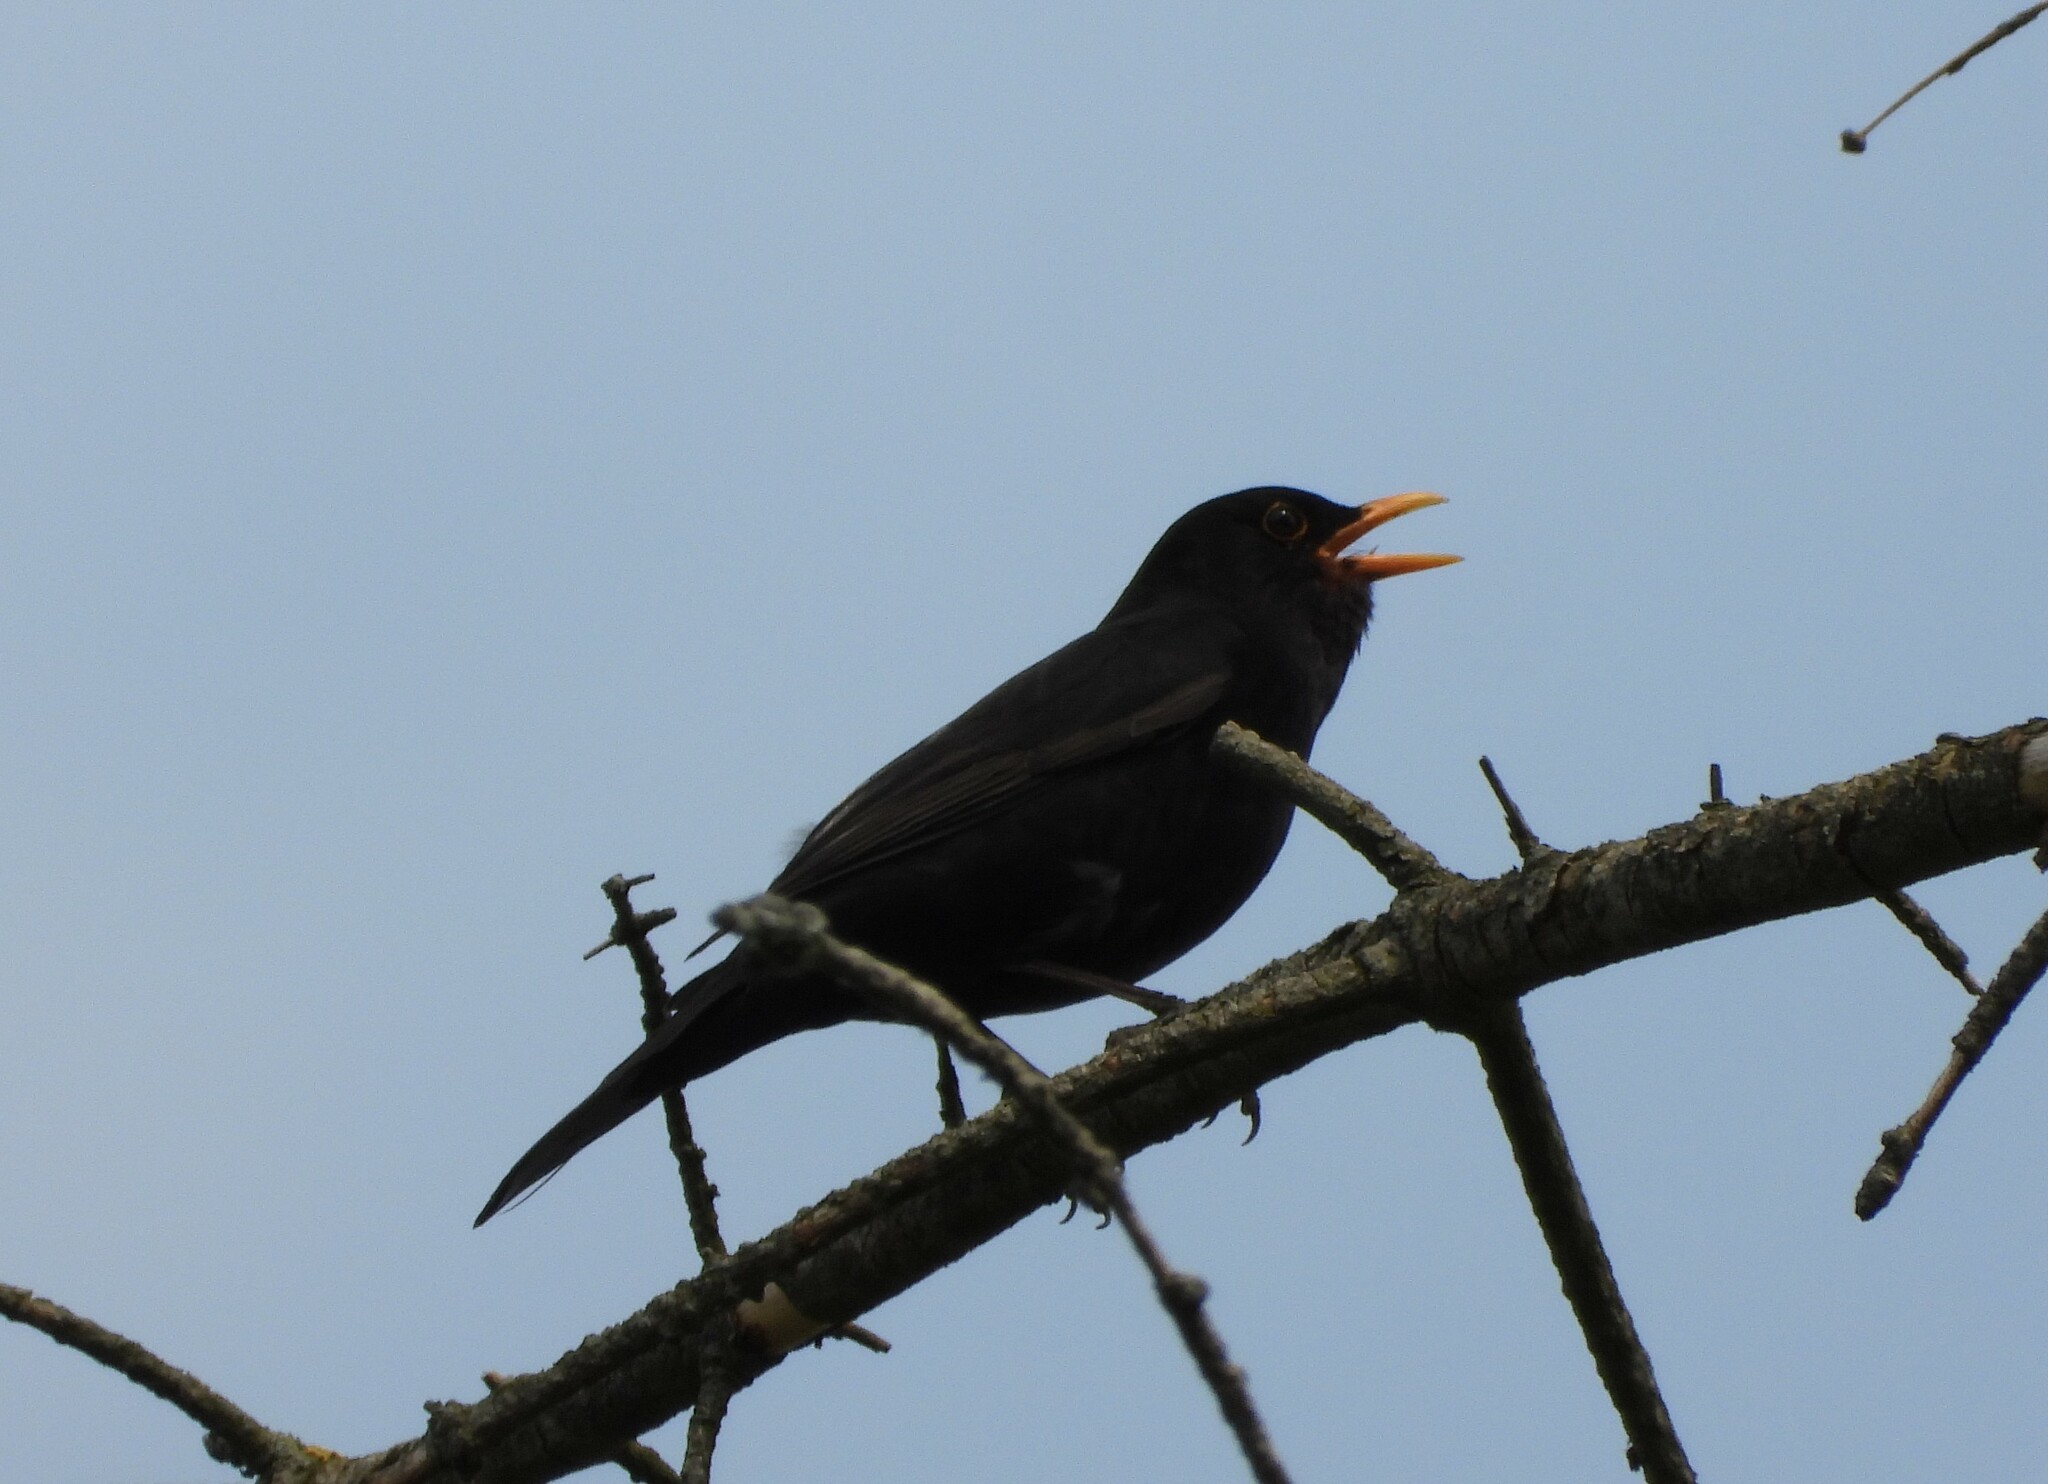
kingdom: Animalia
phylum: Chordata
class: Aves
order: Passeriformes
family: Turdidae
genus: Turdus
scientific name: Turdus merula
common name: Common blackbird
